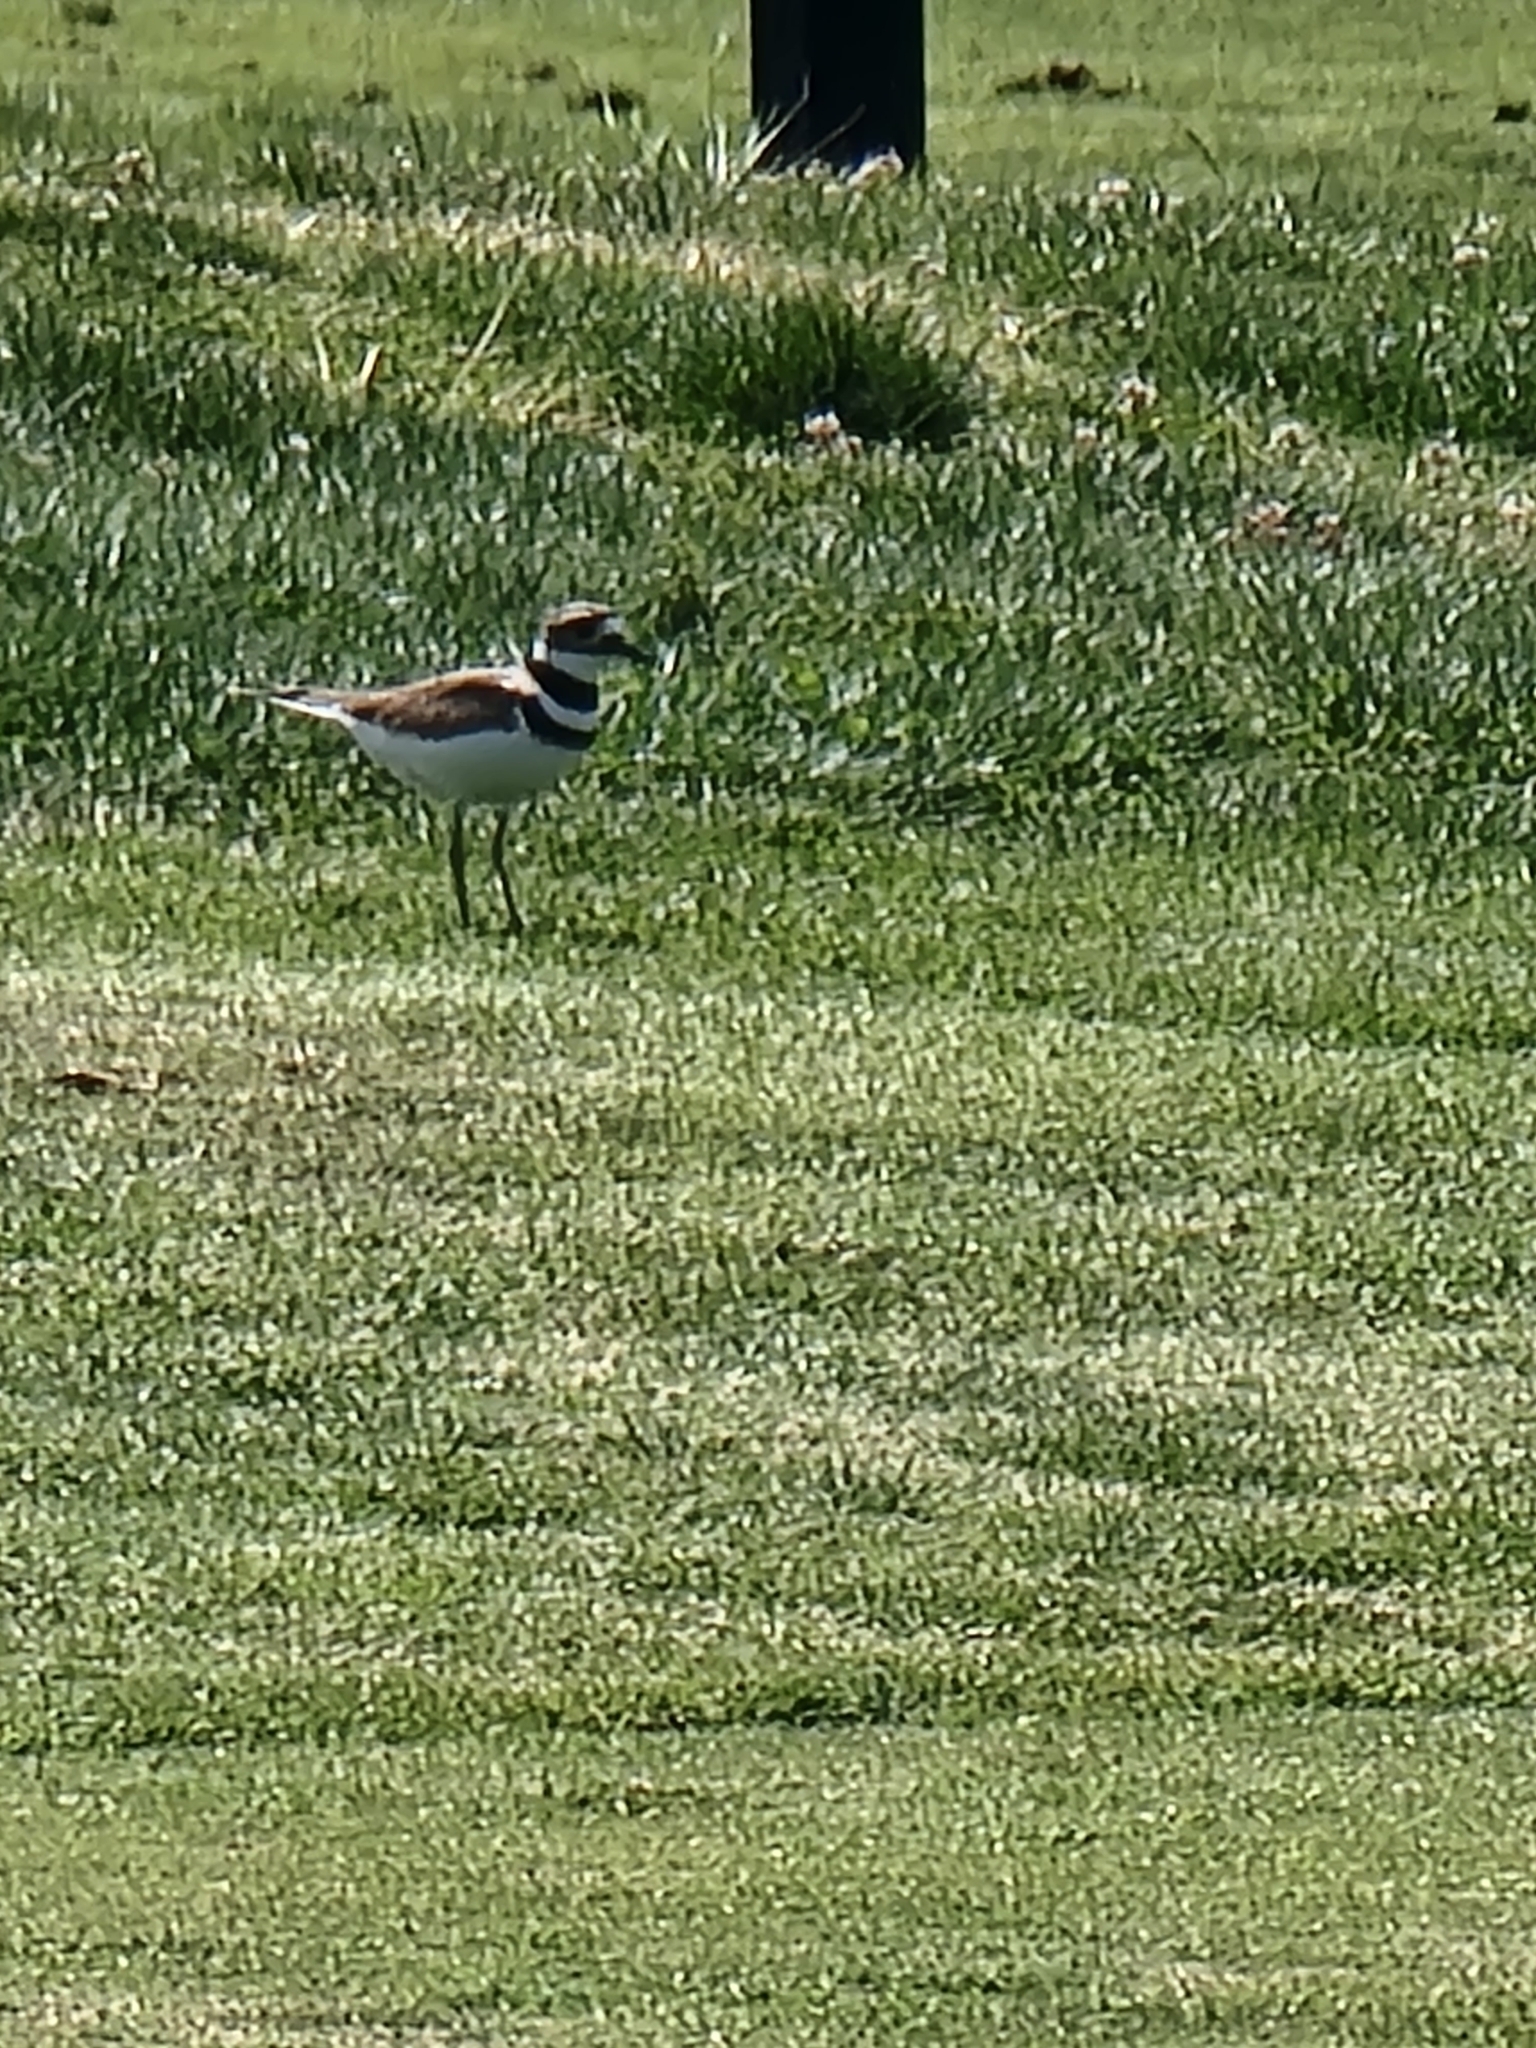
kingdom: Animalia
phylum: Chordata
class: Aves
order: Charadriiformes
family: Charadriidae
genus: Charadrius
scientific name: Charadrius vociferus
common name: Killdeer
